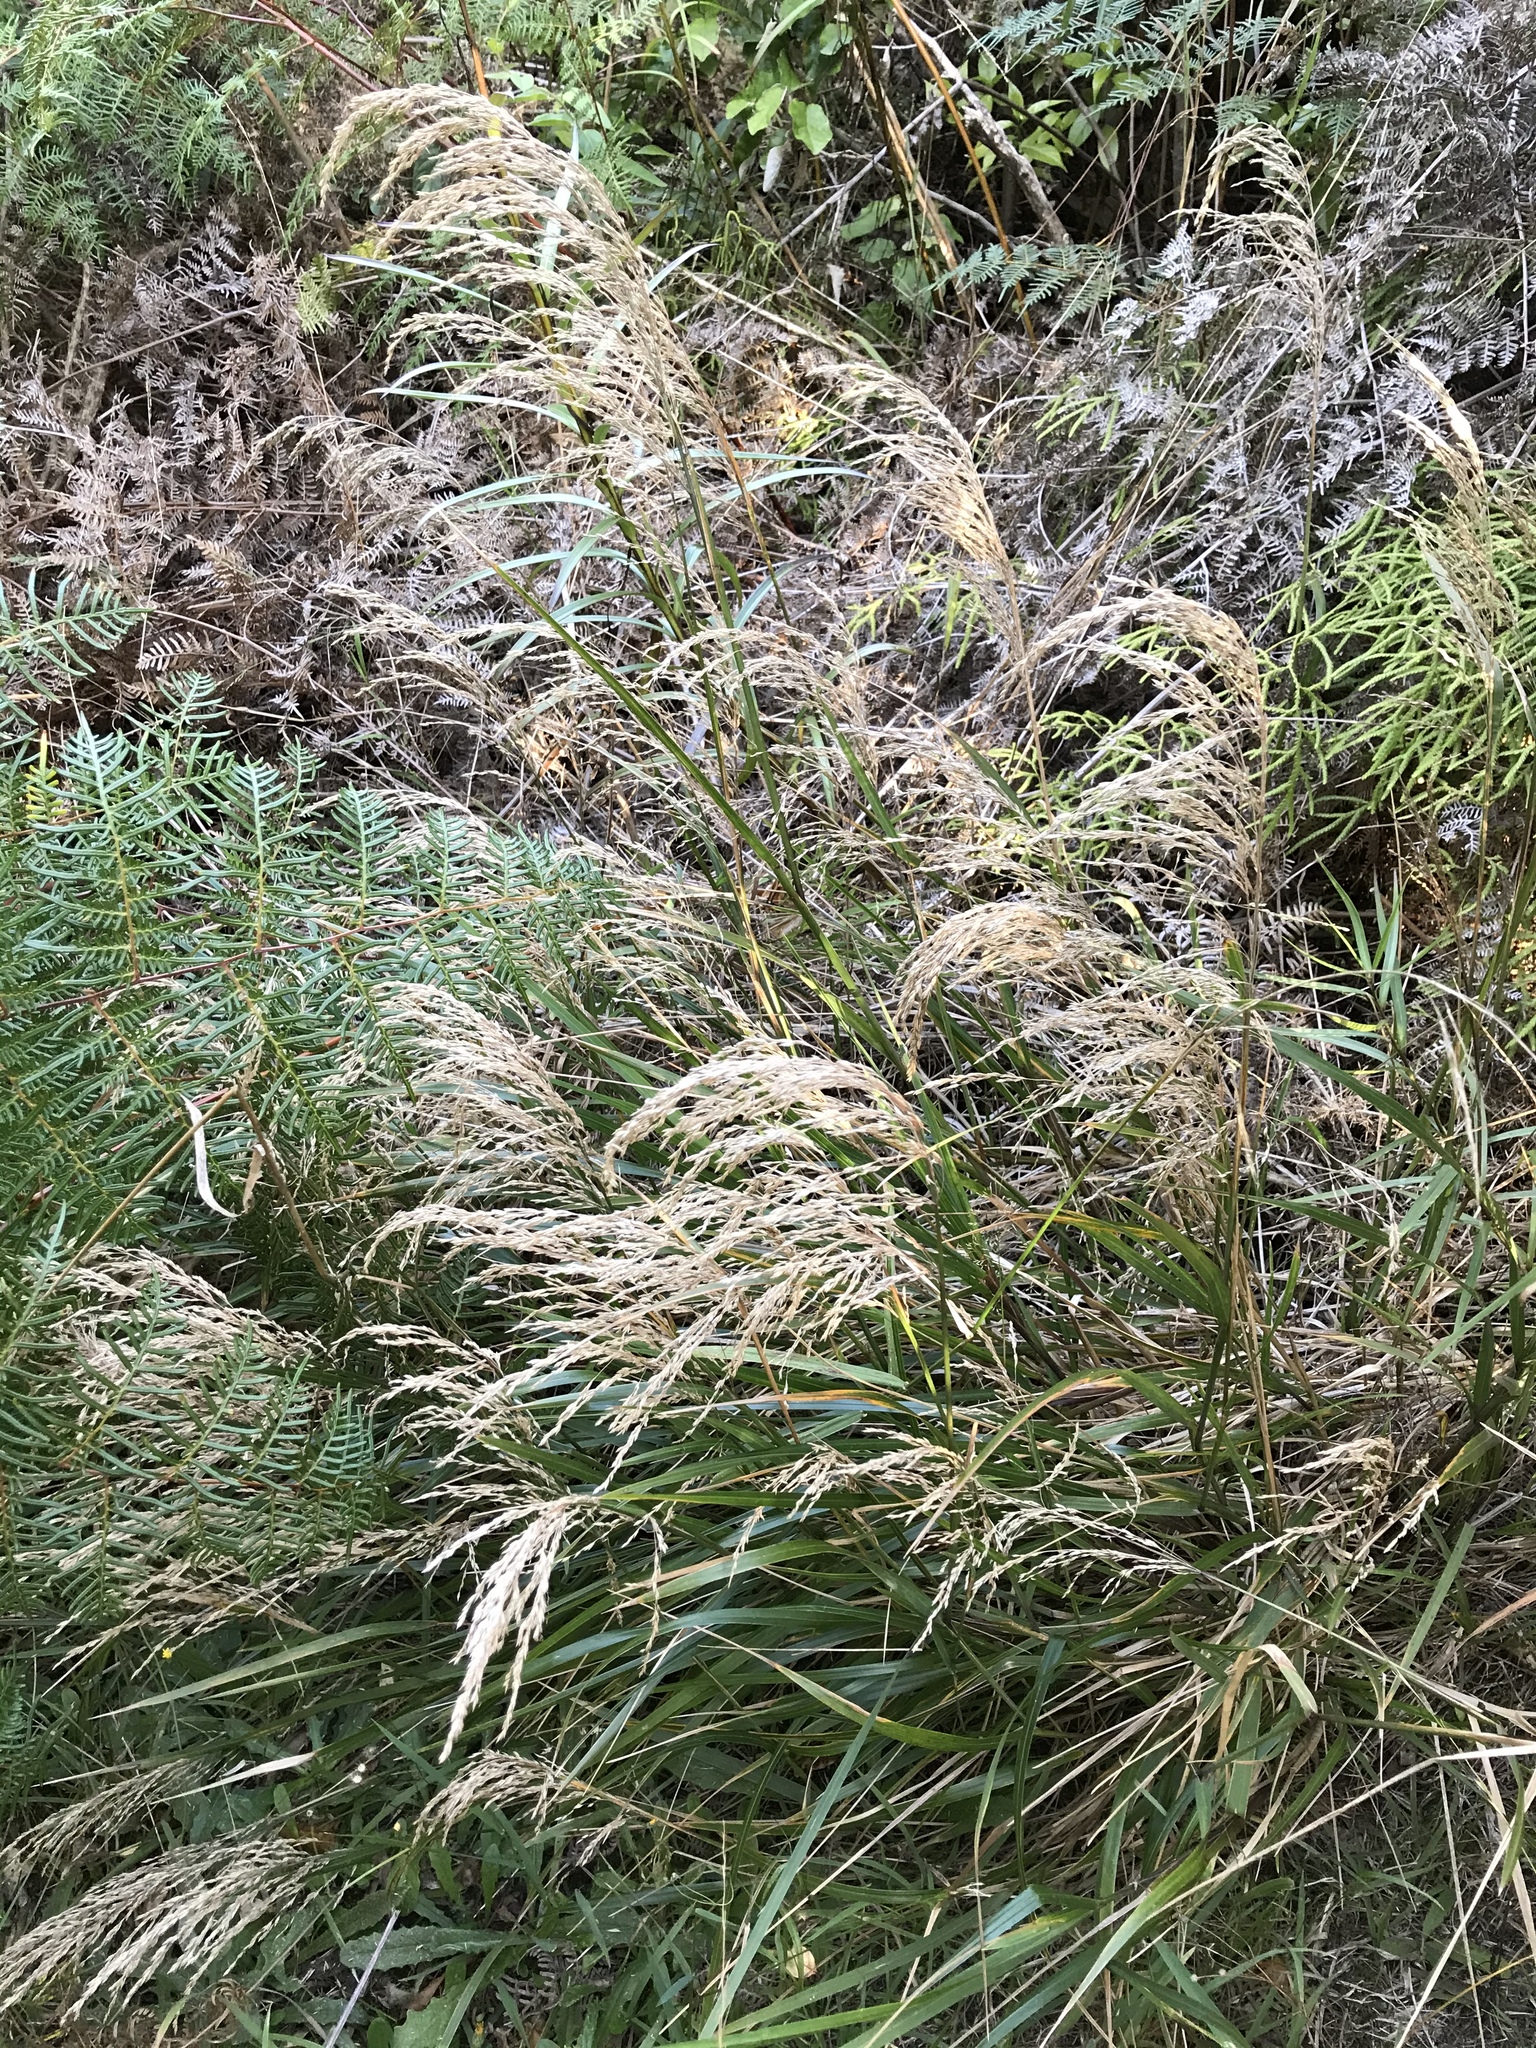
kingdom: Plantae
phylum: Tracheophyta
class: Liliopsida
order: Poales
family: Poaceae
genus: Poa
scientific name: Poa anceps
